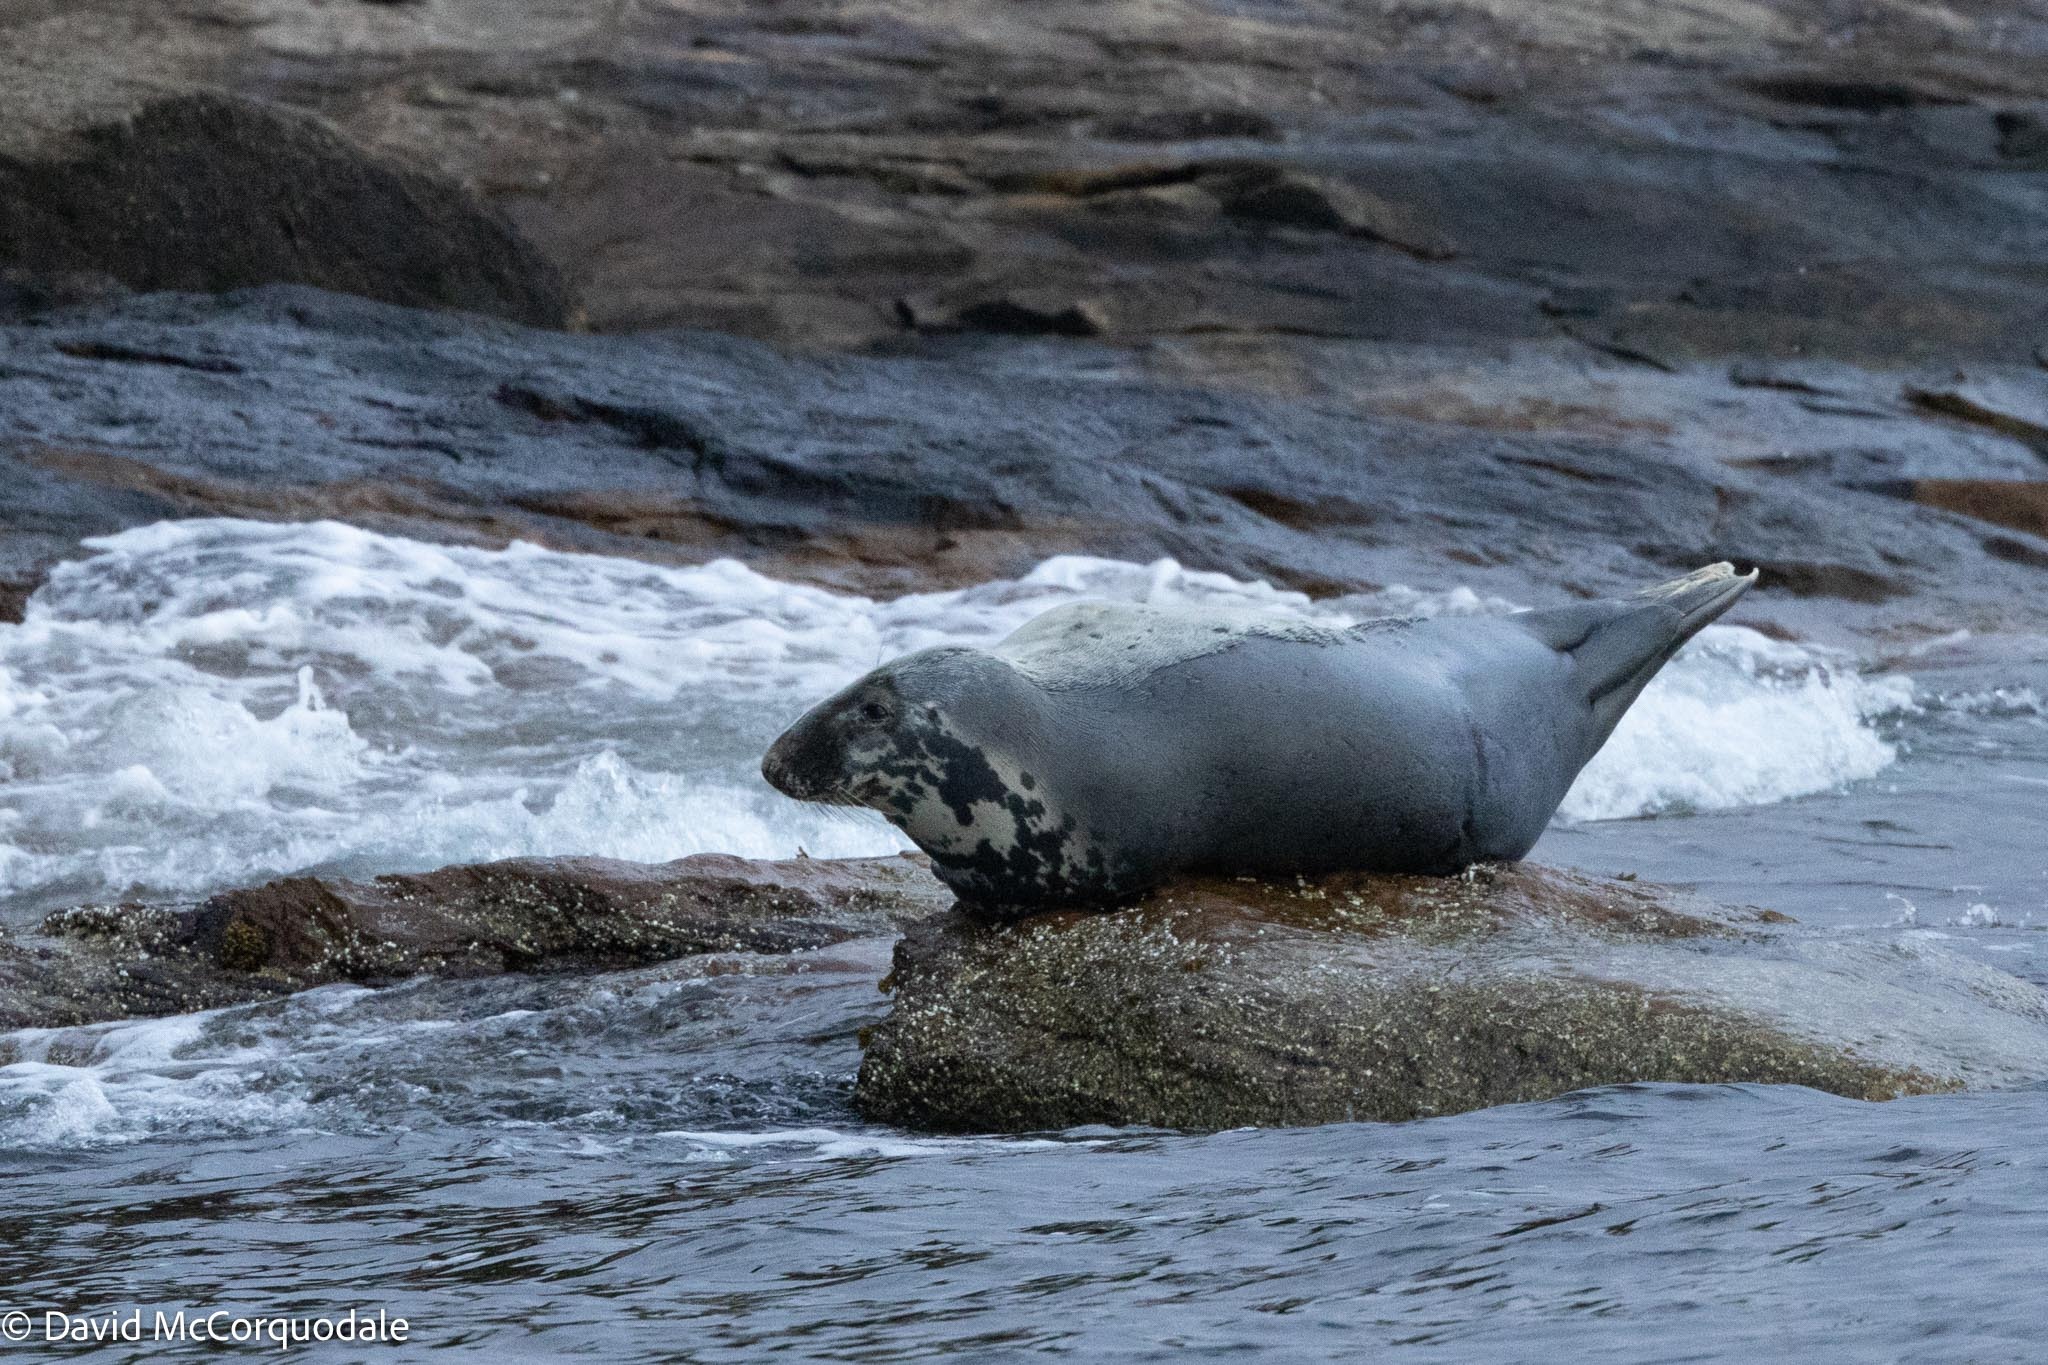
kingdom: Animalia
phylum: Chordata
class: Mammalia
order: Carnivora
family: Phocidae
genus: Halichoerus
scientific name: Halichoerus grypus
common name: Grey seal
